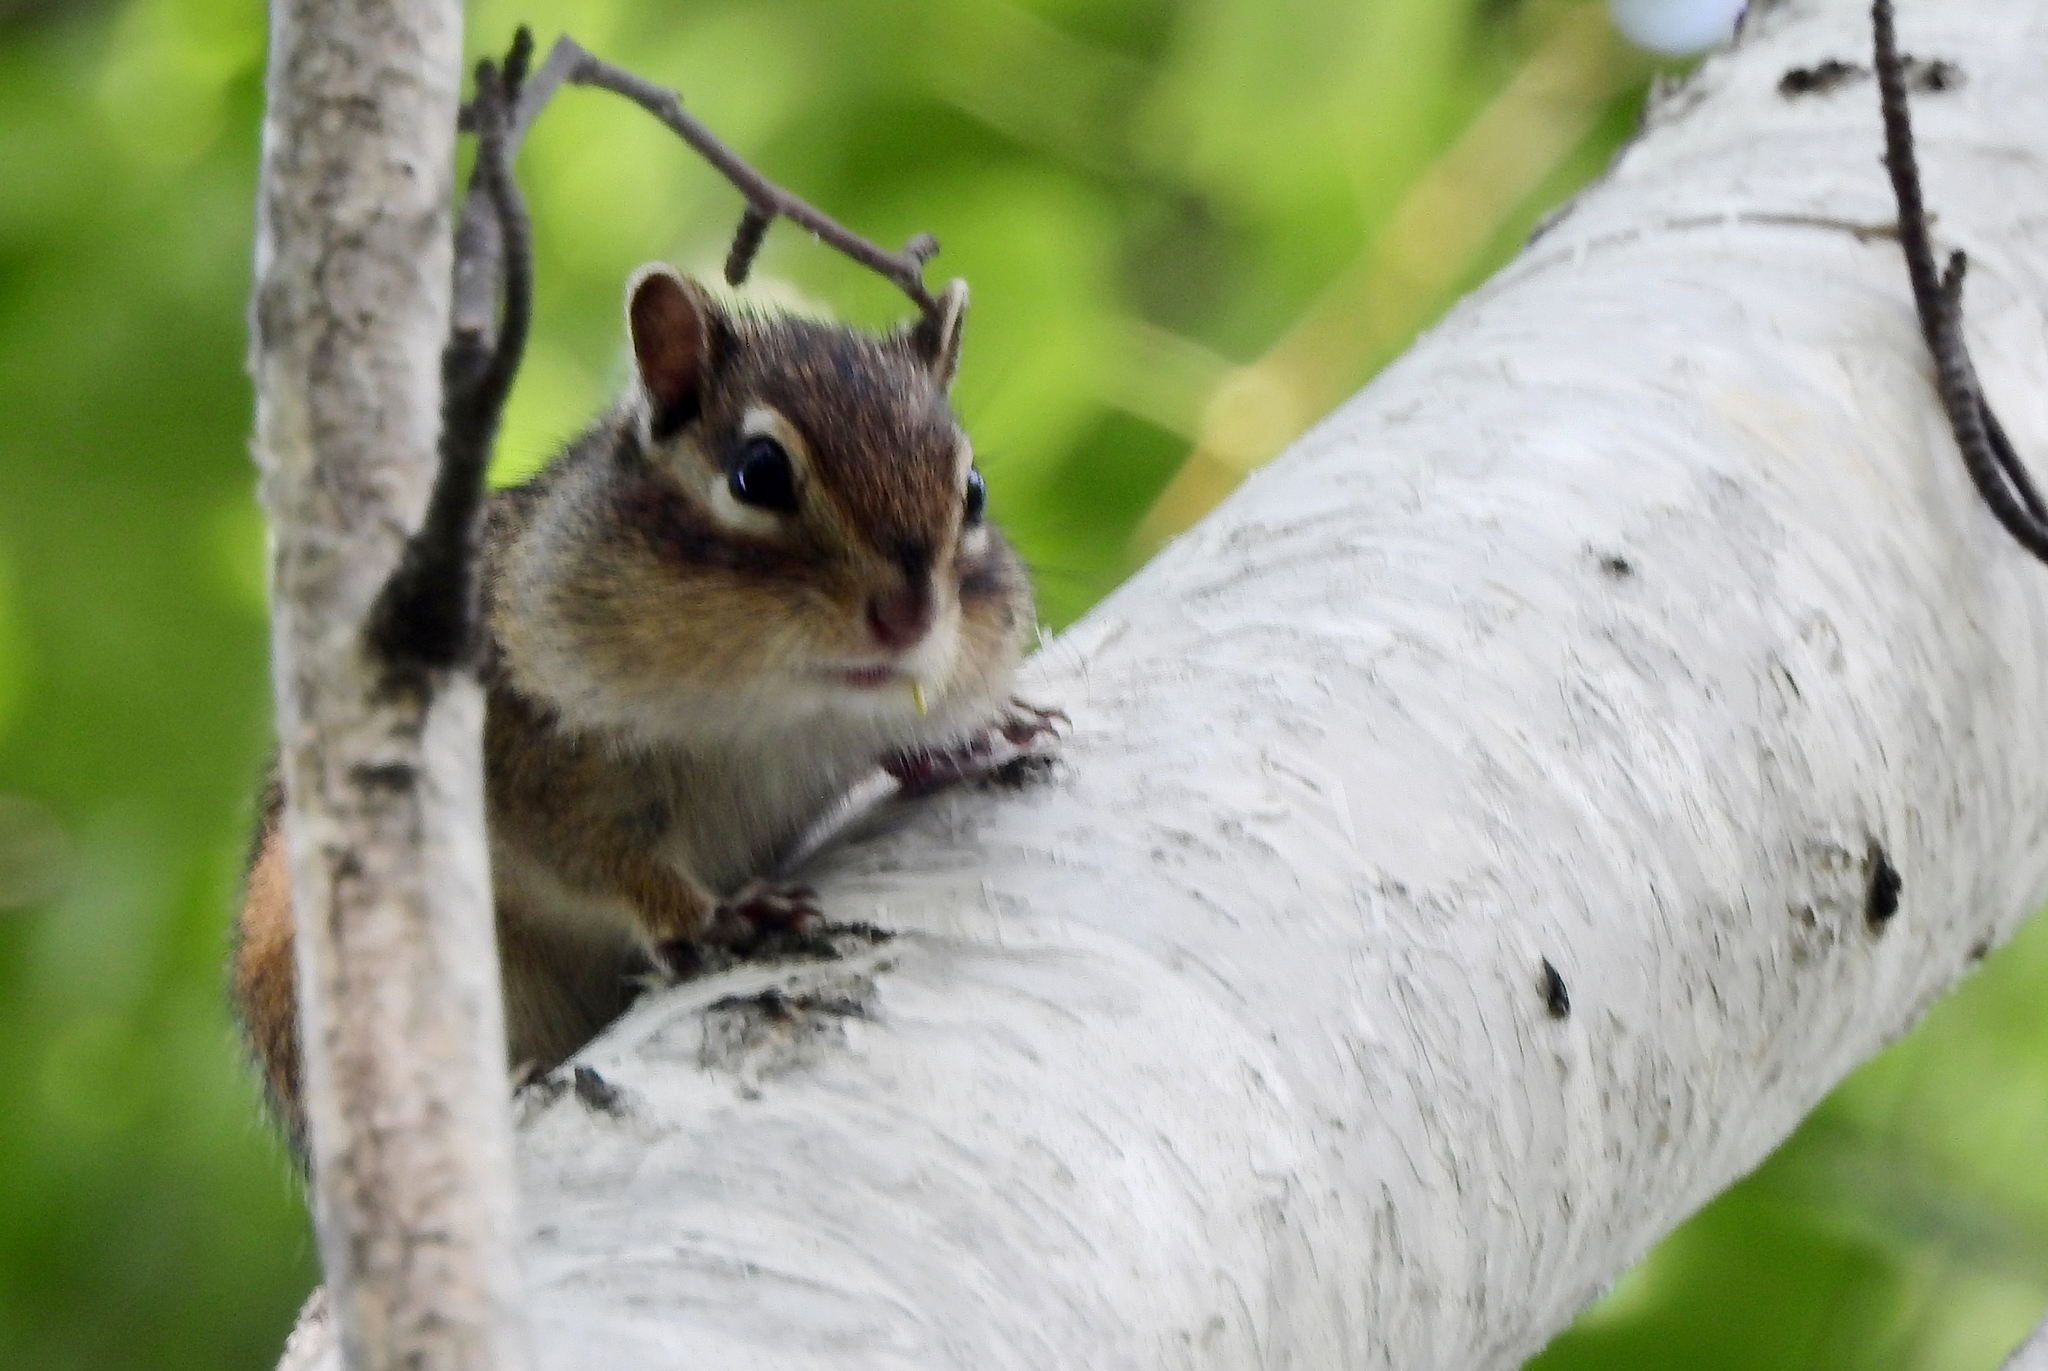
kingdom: Animalia
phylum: Chordata
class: Mammalia
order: Rodentia
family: Sciuridae
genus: Tamias
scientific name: Tamias sibiricus
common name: Siberian chipmunk
